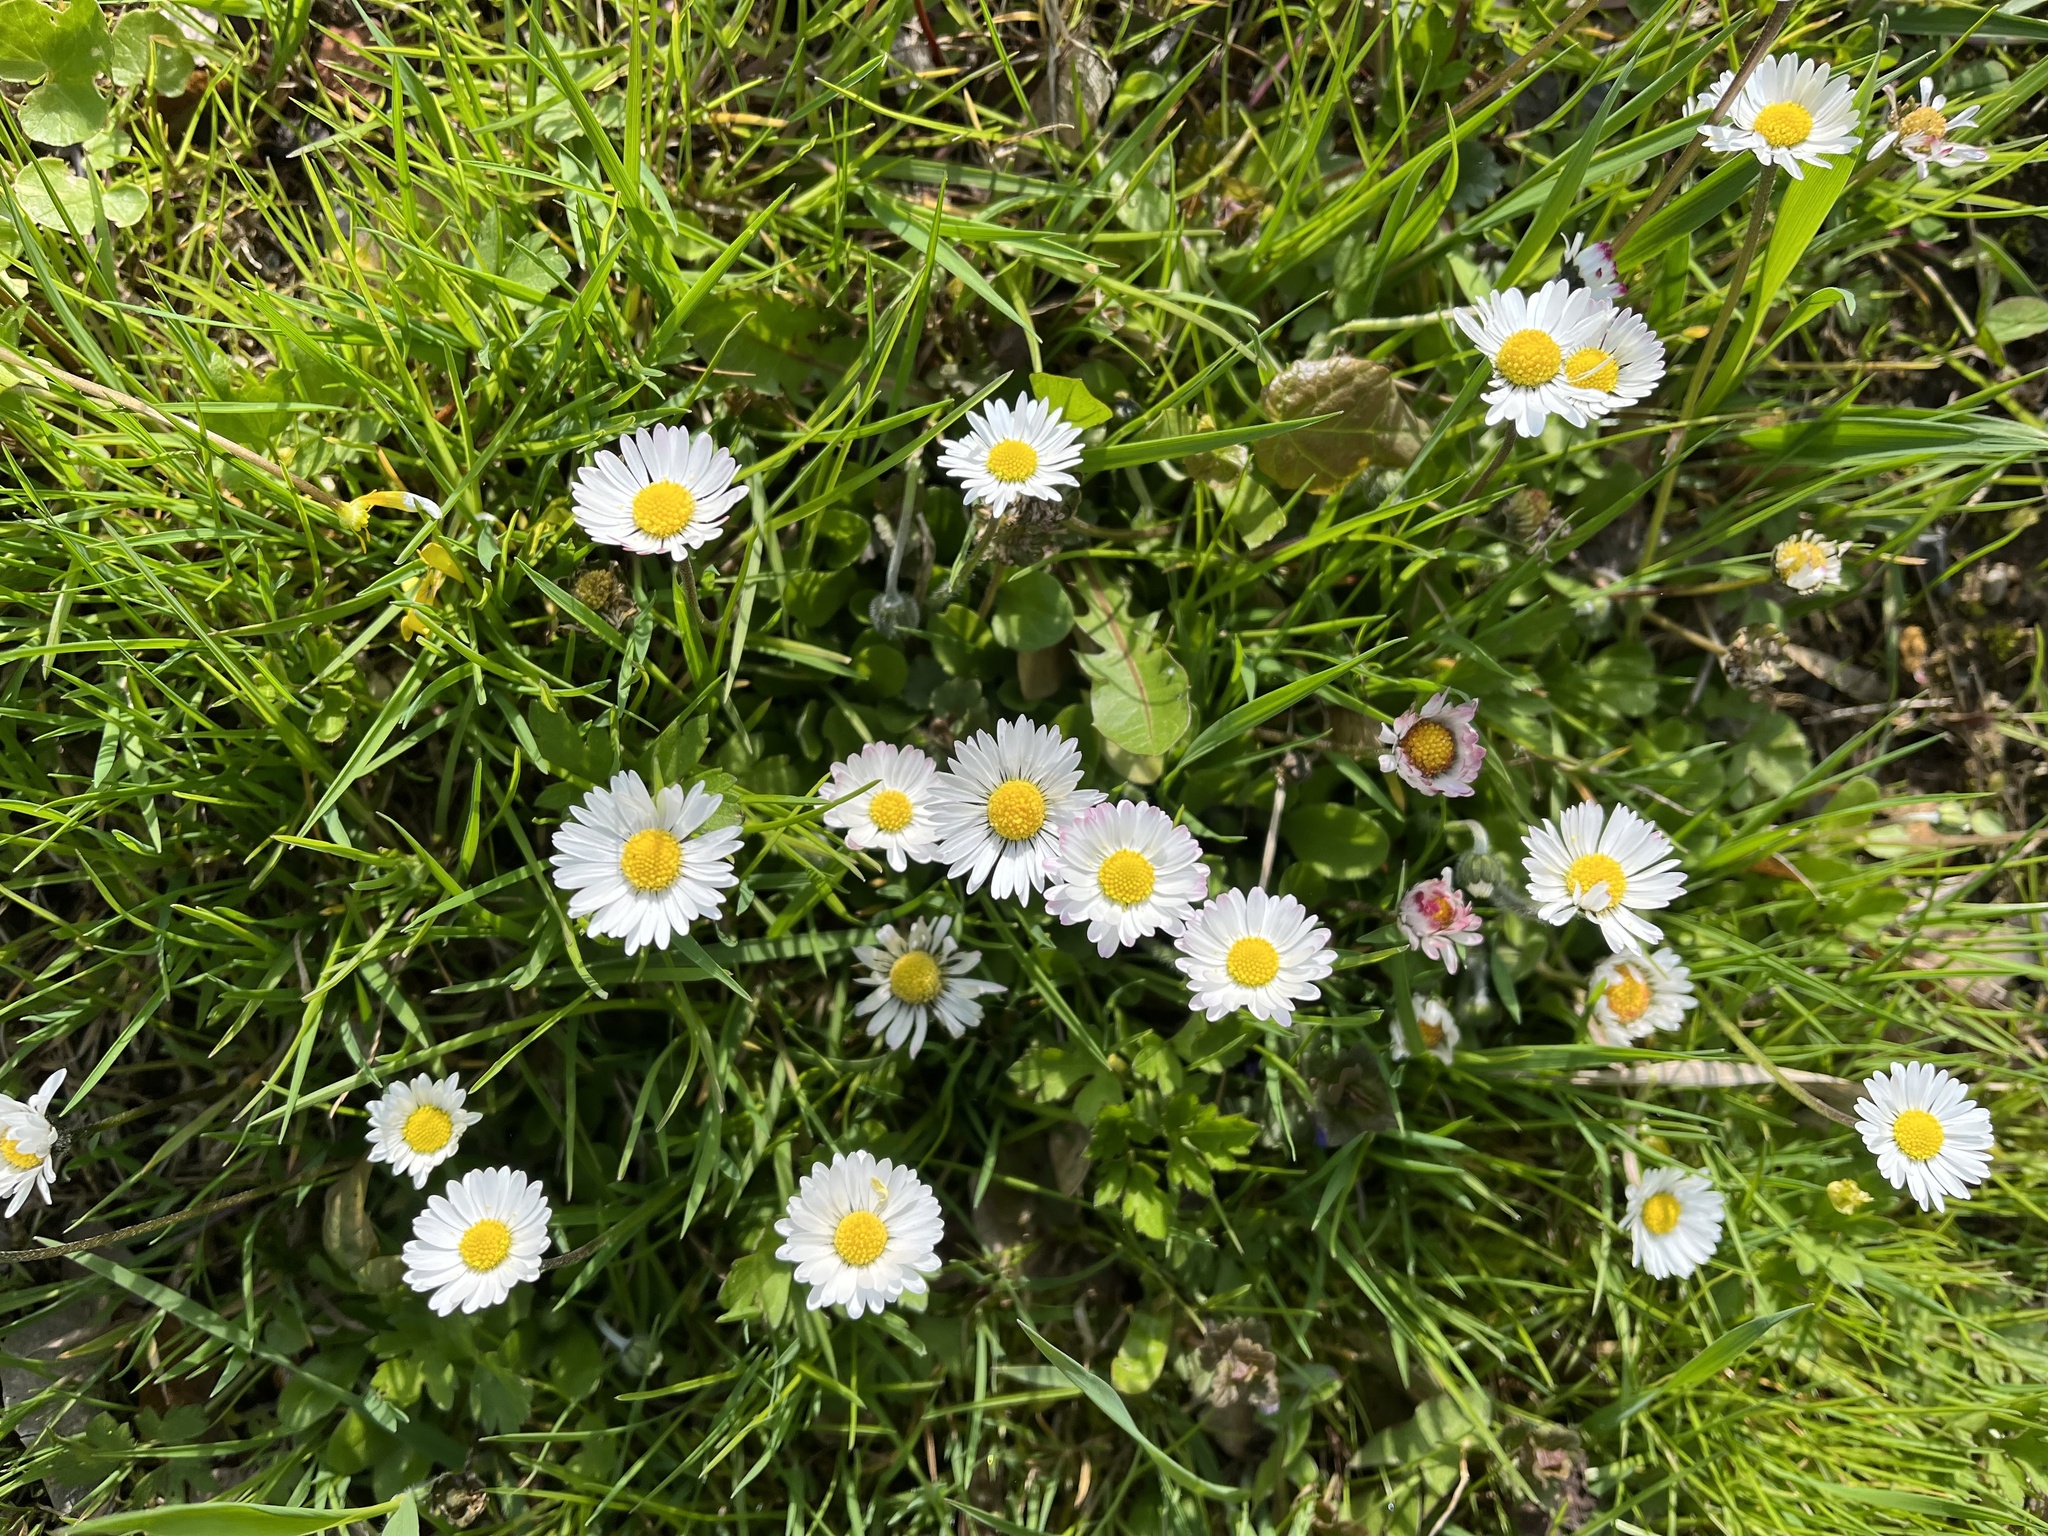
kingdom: Plantae
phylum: Tracheophyta
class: Magnoliopsida
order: Asterales
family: Asteraceae
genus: Bellis
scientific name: Bellis perennis
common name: Lawndaisy
